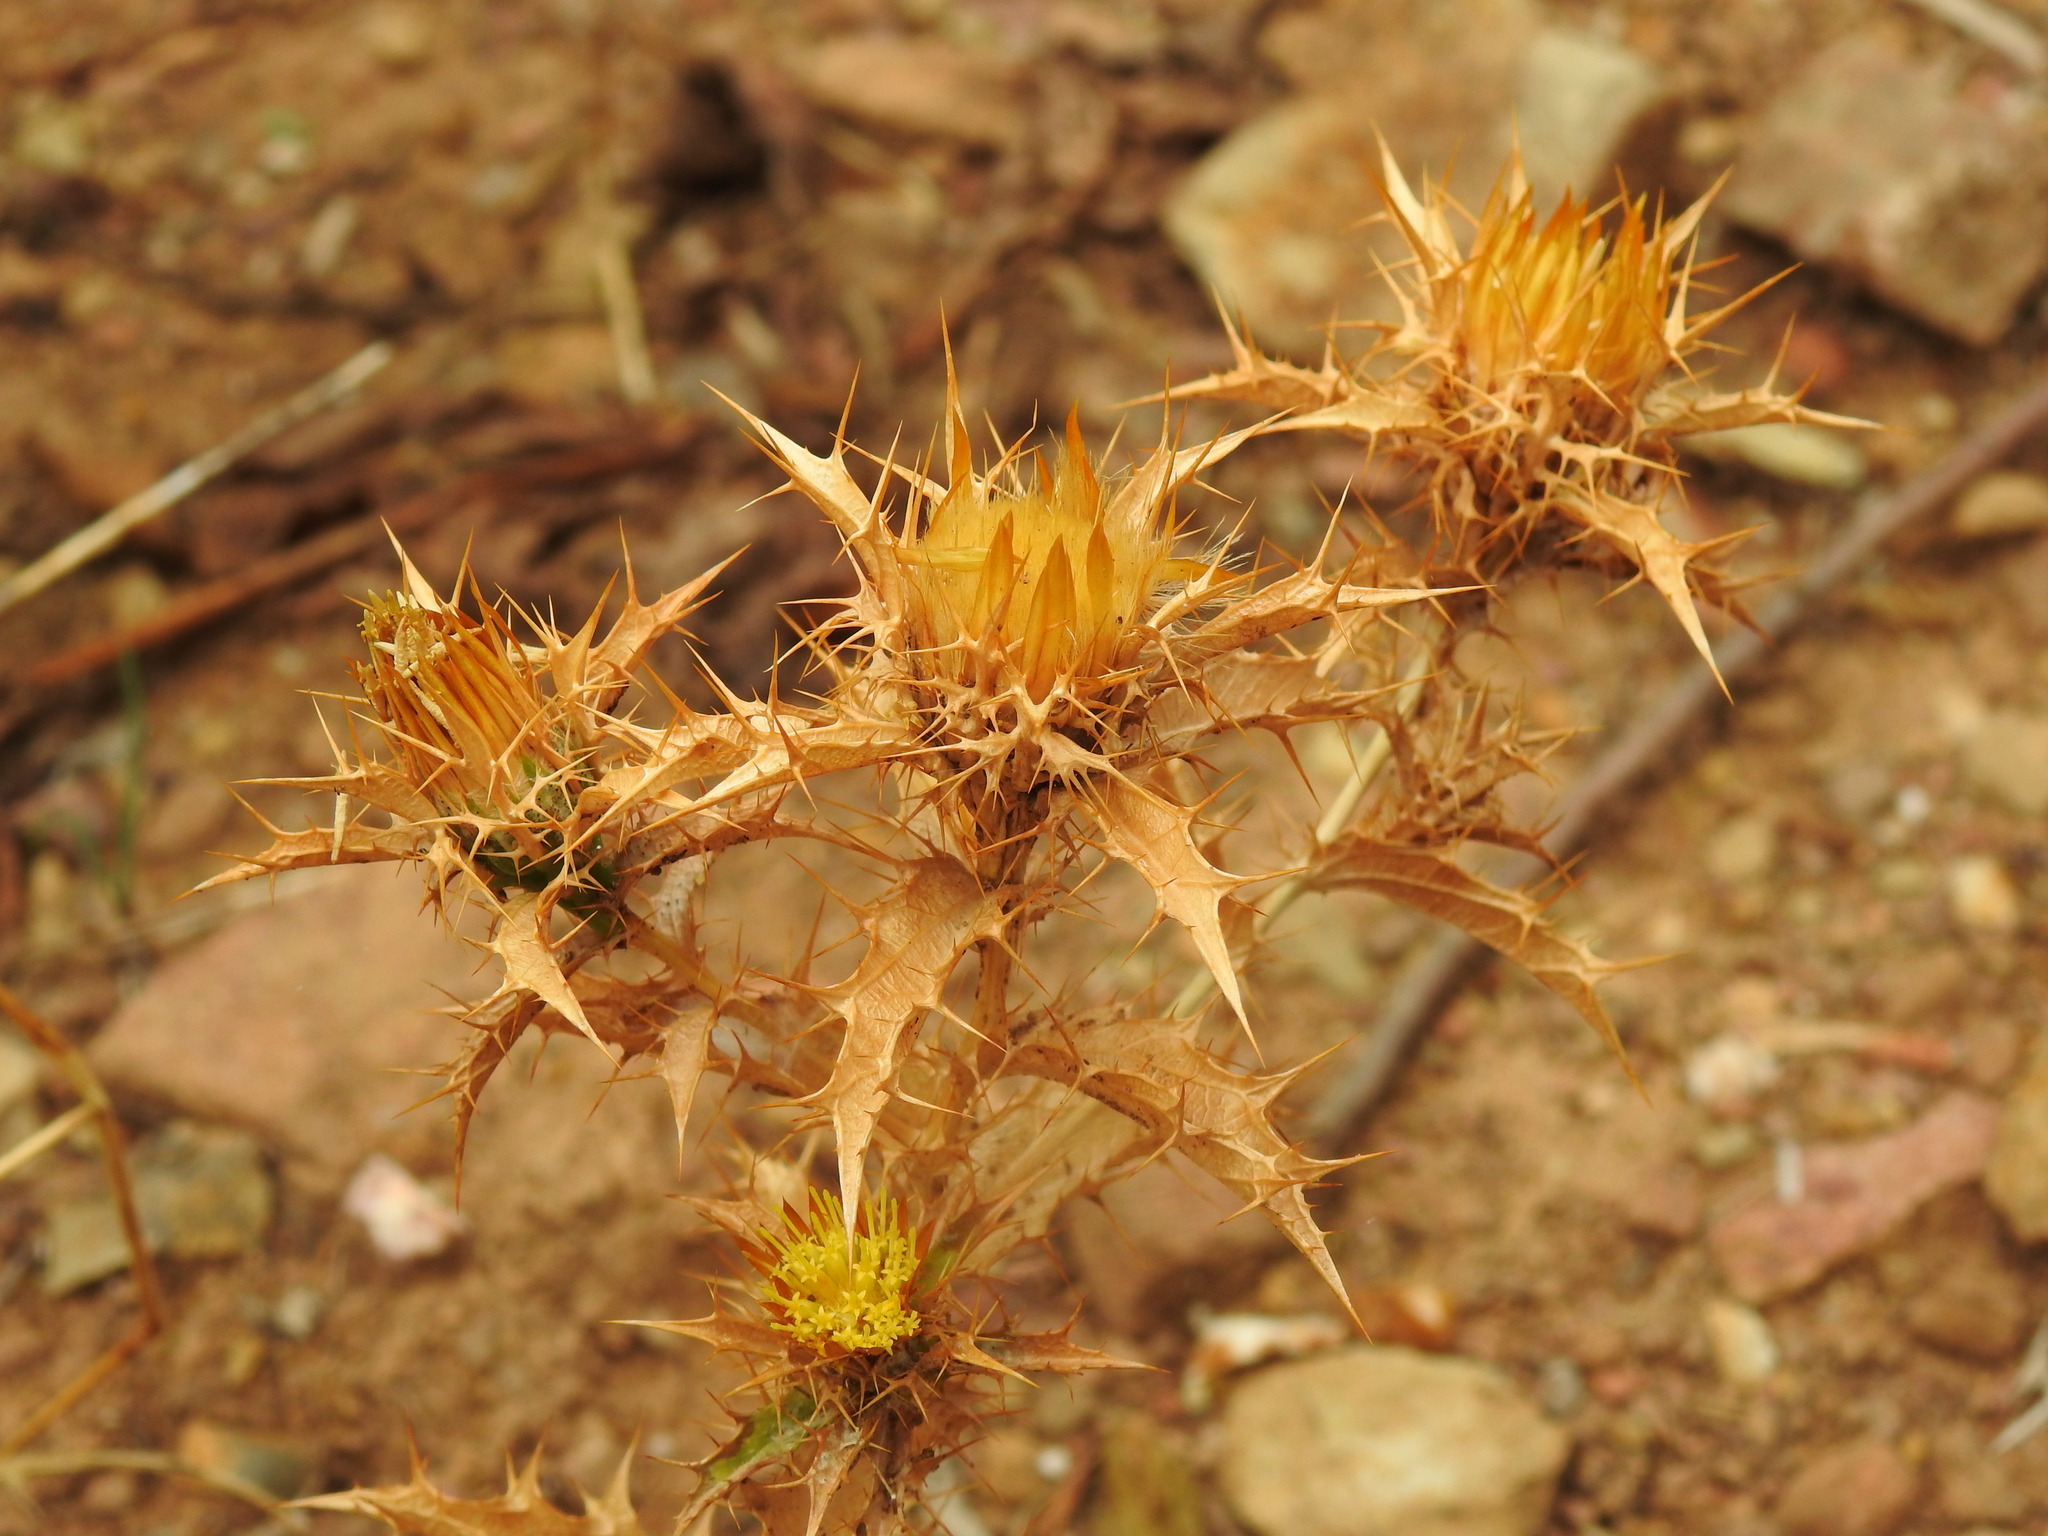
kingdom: Plantae
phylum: Tracheophyta
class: Magnoliopsida
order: Asterales
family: Asteraceae
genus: Carlina
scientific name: Carlina hispanica
